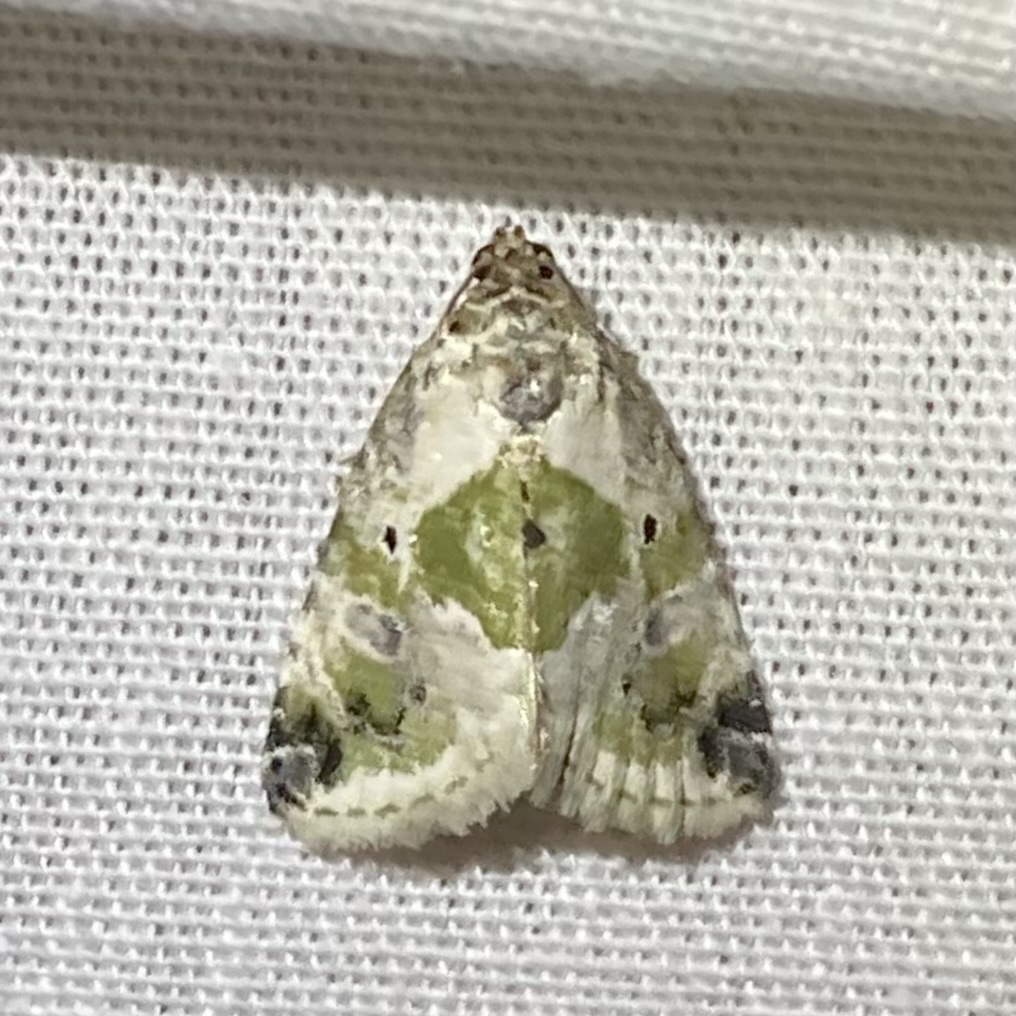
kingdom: Animalia
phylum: Arthropoda
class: Insecta
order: Lepidoptera
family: Noctuidae
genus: Maliattha
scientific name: Maliattha synochitis
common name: Black-dotted glyph
